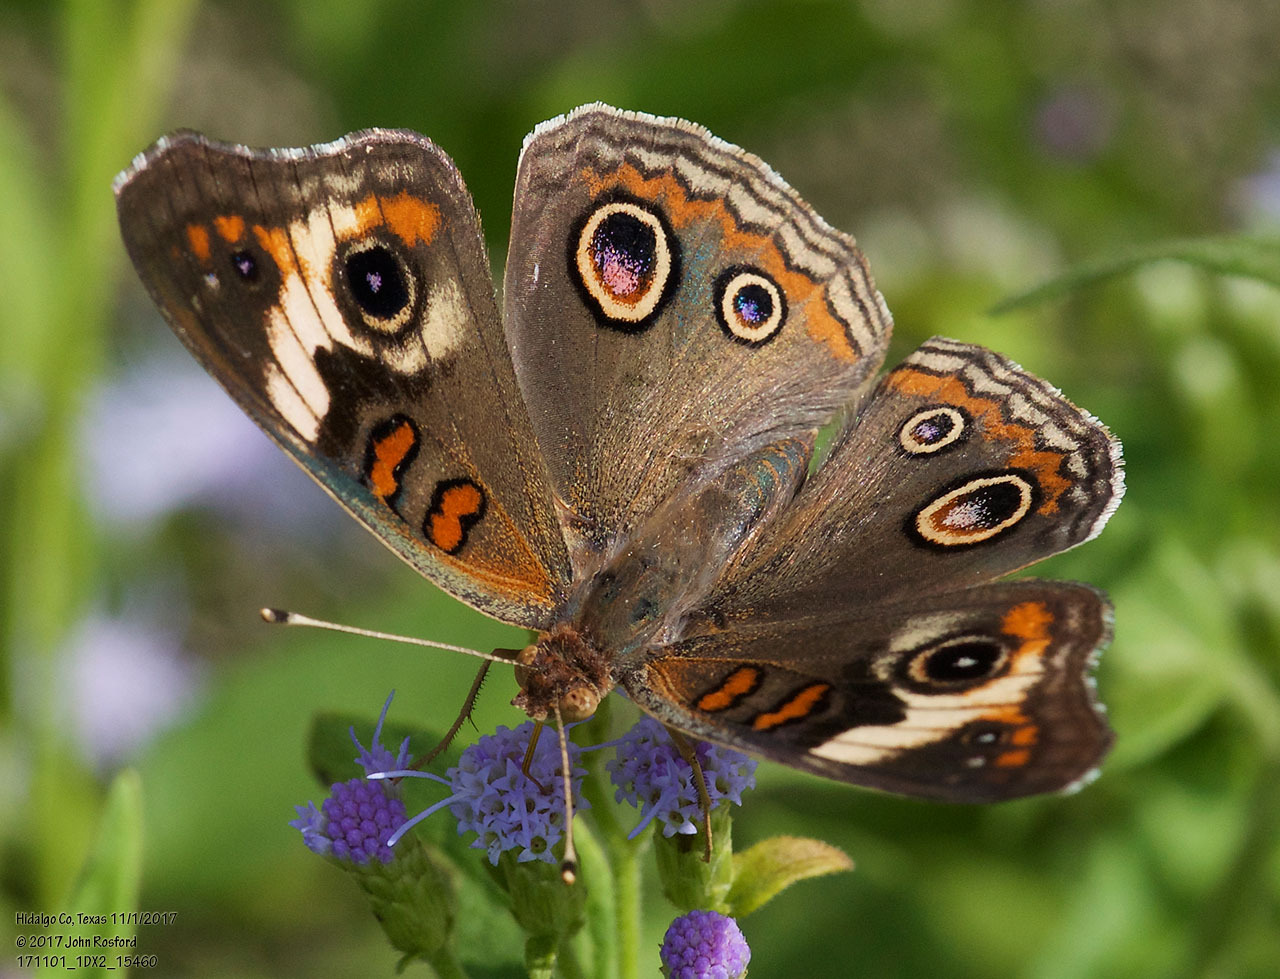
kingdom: Animalia
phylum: Arthropoda
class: Insecta
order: Lepidoptera
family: Nymphalidae
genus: Junonia
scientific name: Junonia coenia
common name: Common buckeye
